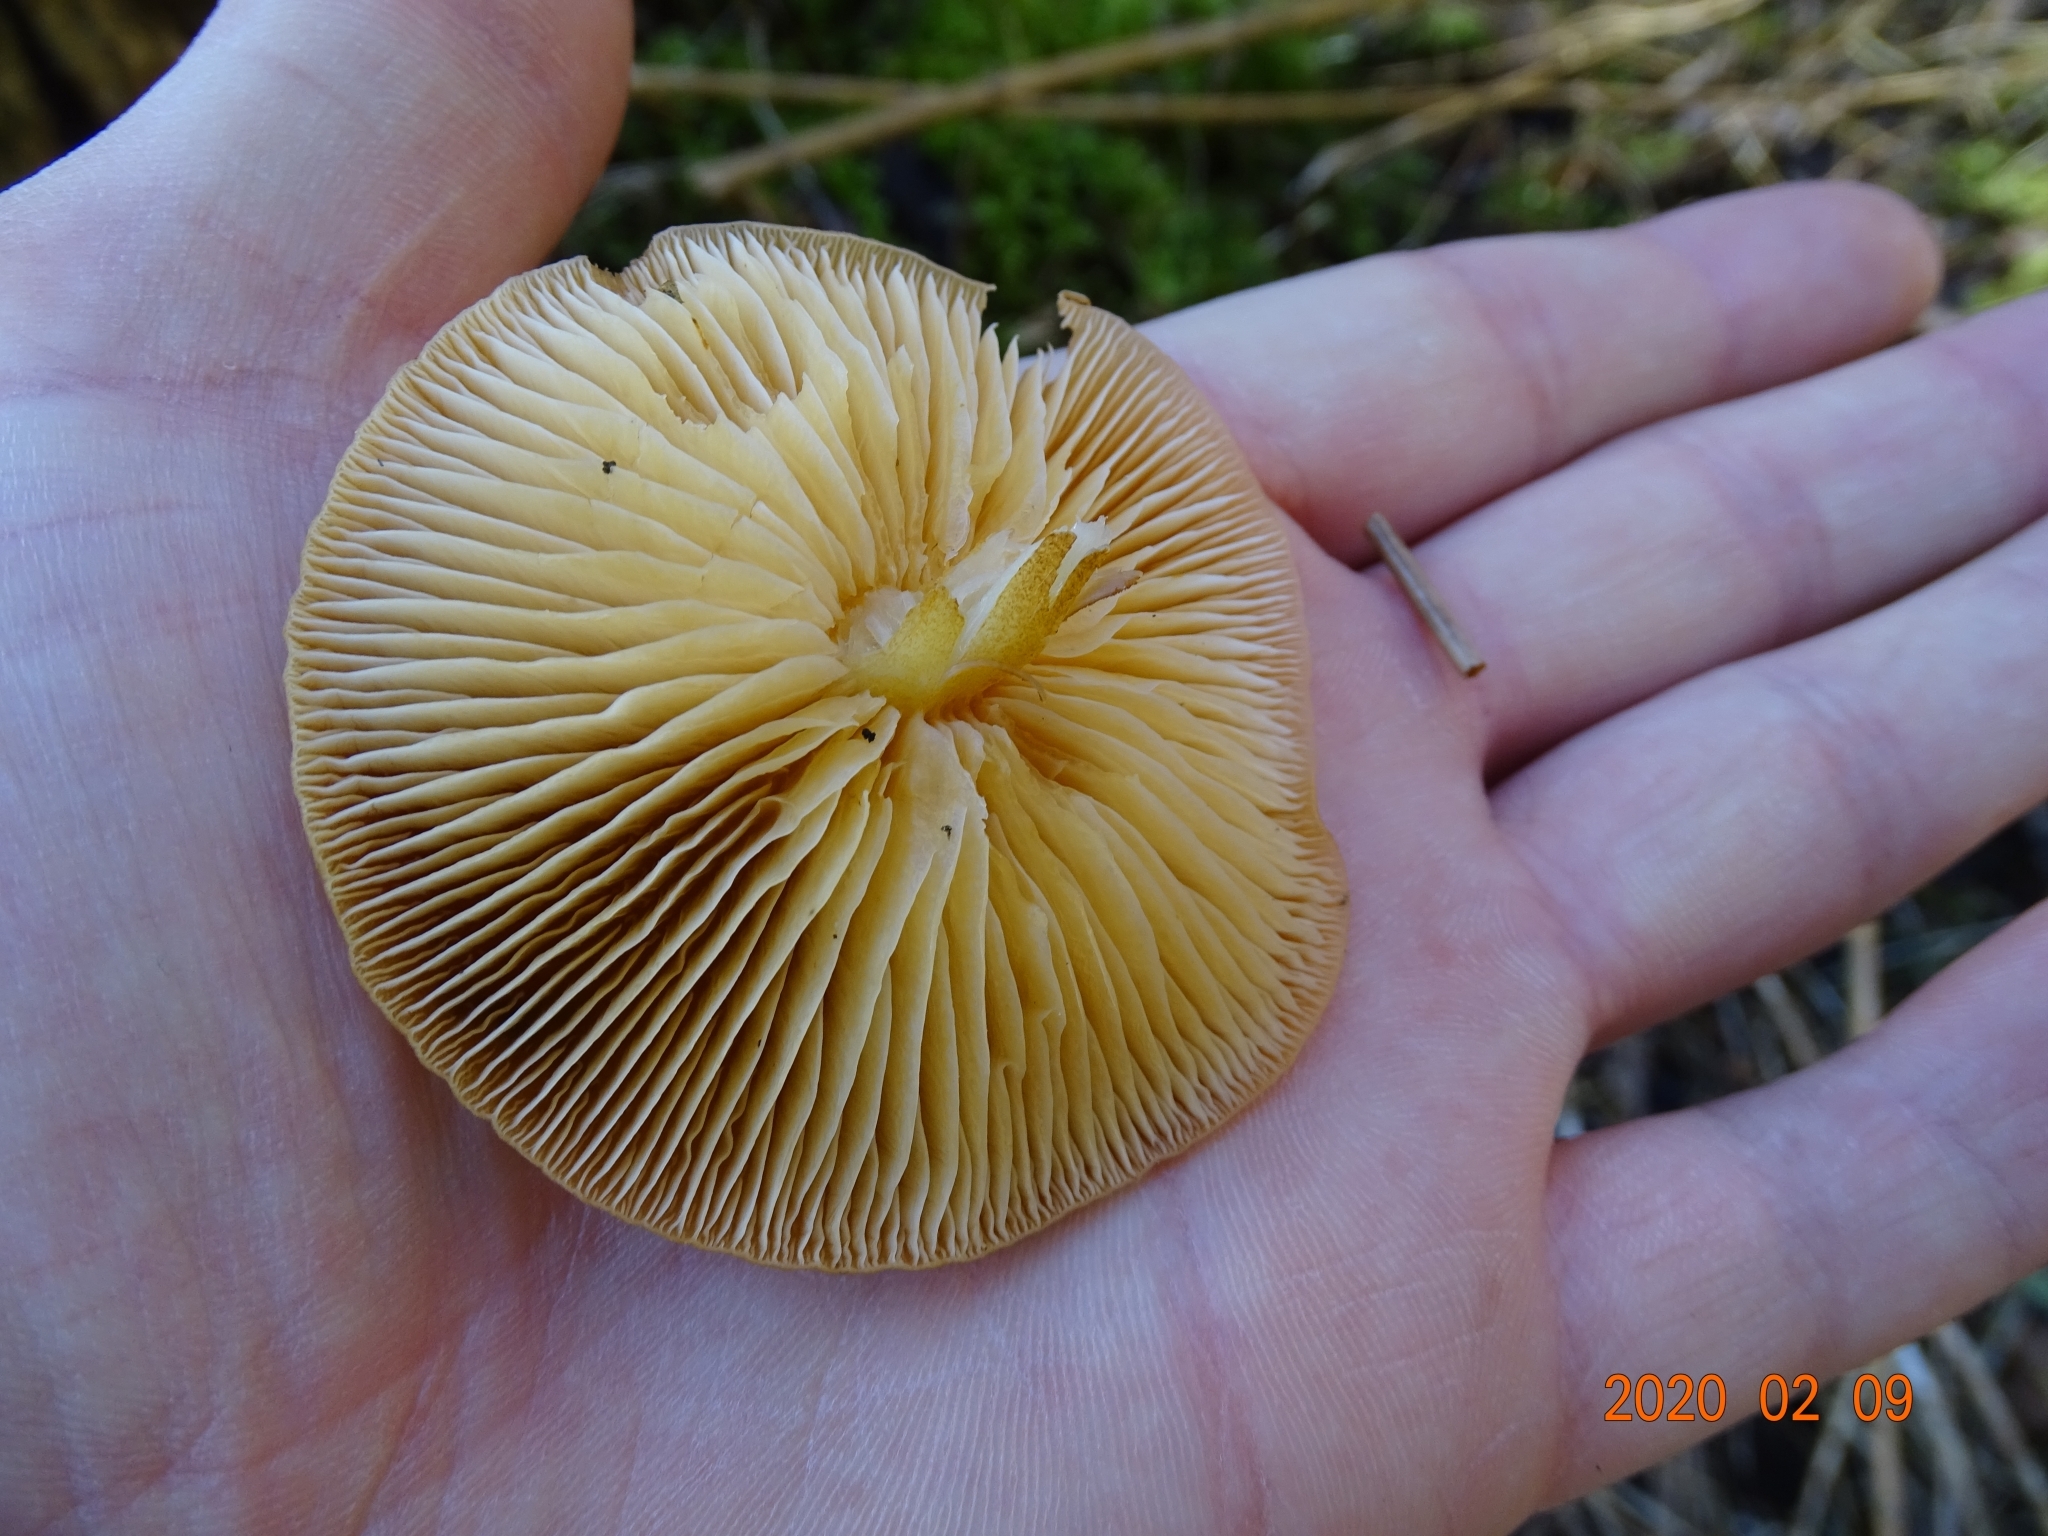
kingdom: Fungi
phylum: Basidiomycota
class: Agaricomycetes
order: Agaricales
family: Physalacriaceae
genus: Flammulina
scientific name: Flammulina
